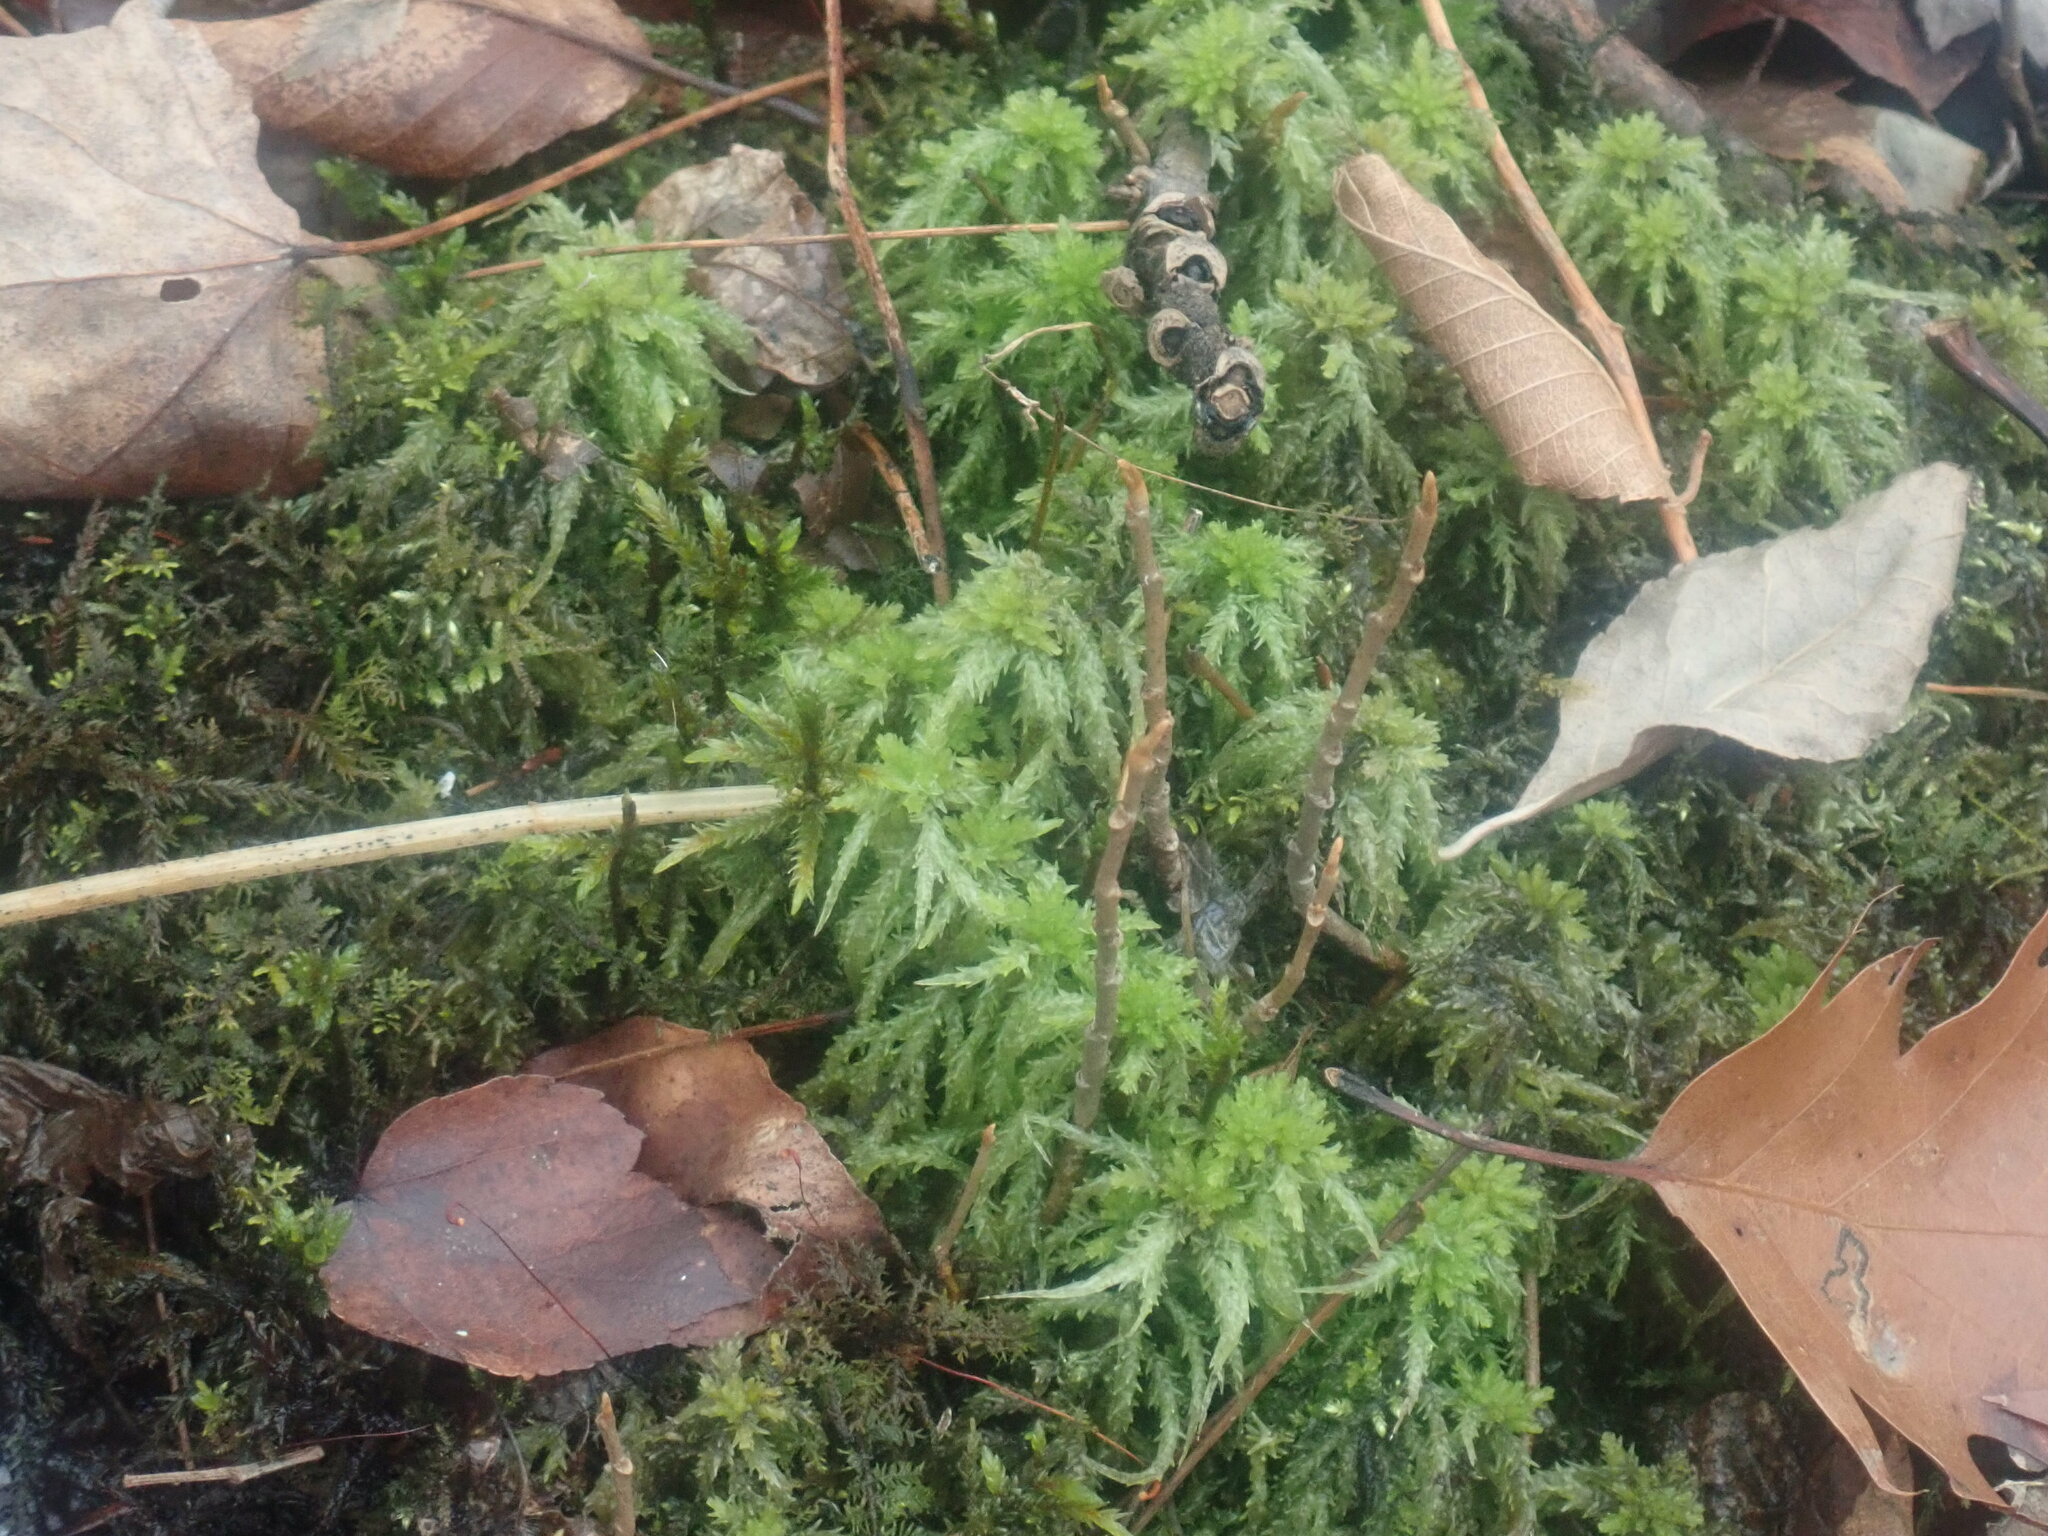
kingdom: Plantae
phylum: Bryophyta
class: Sphagnopsida
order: Sphagnales
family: Sphagnaceae
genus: Sphagnum
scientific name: Sphagnum
